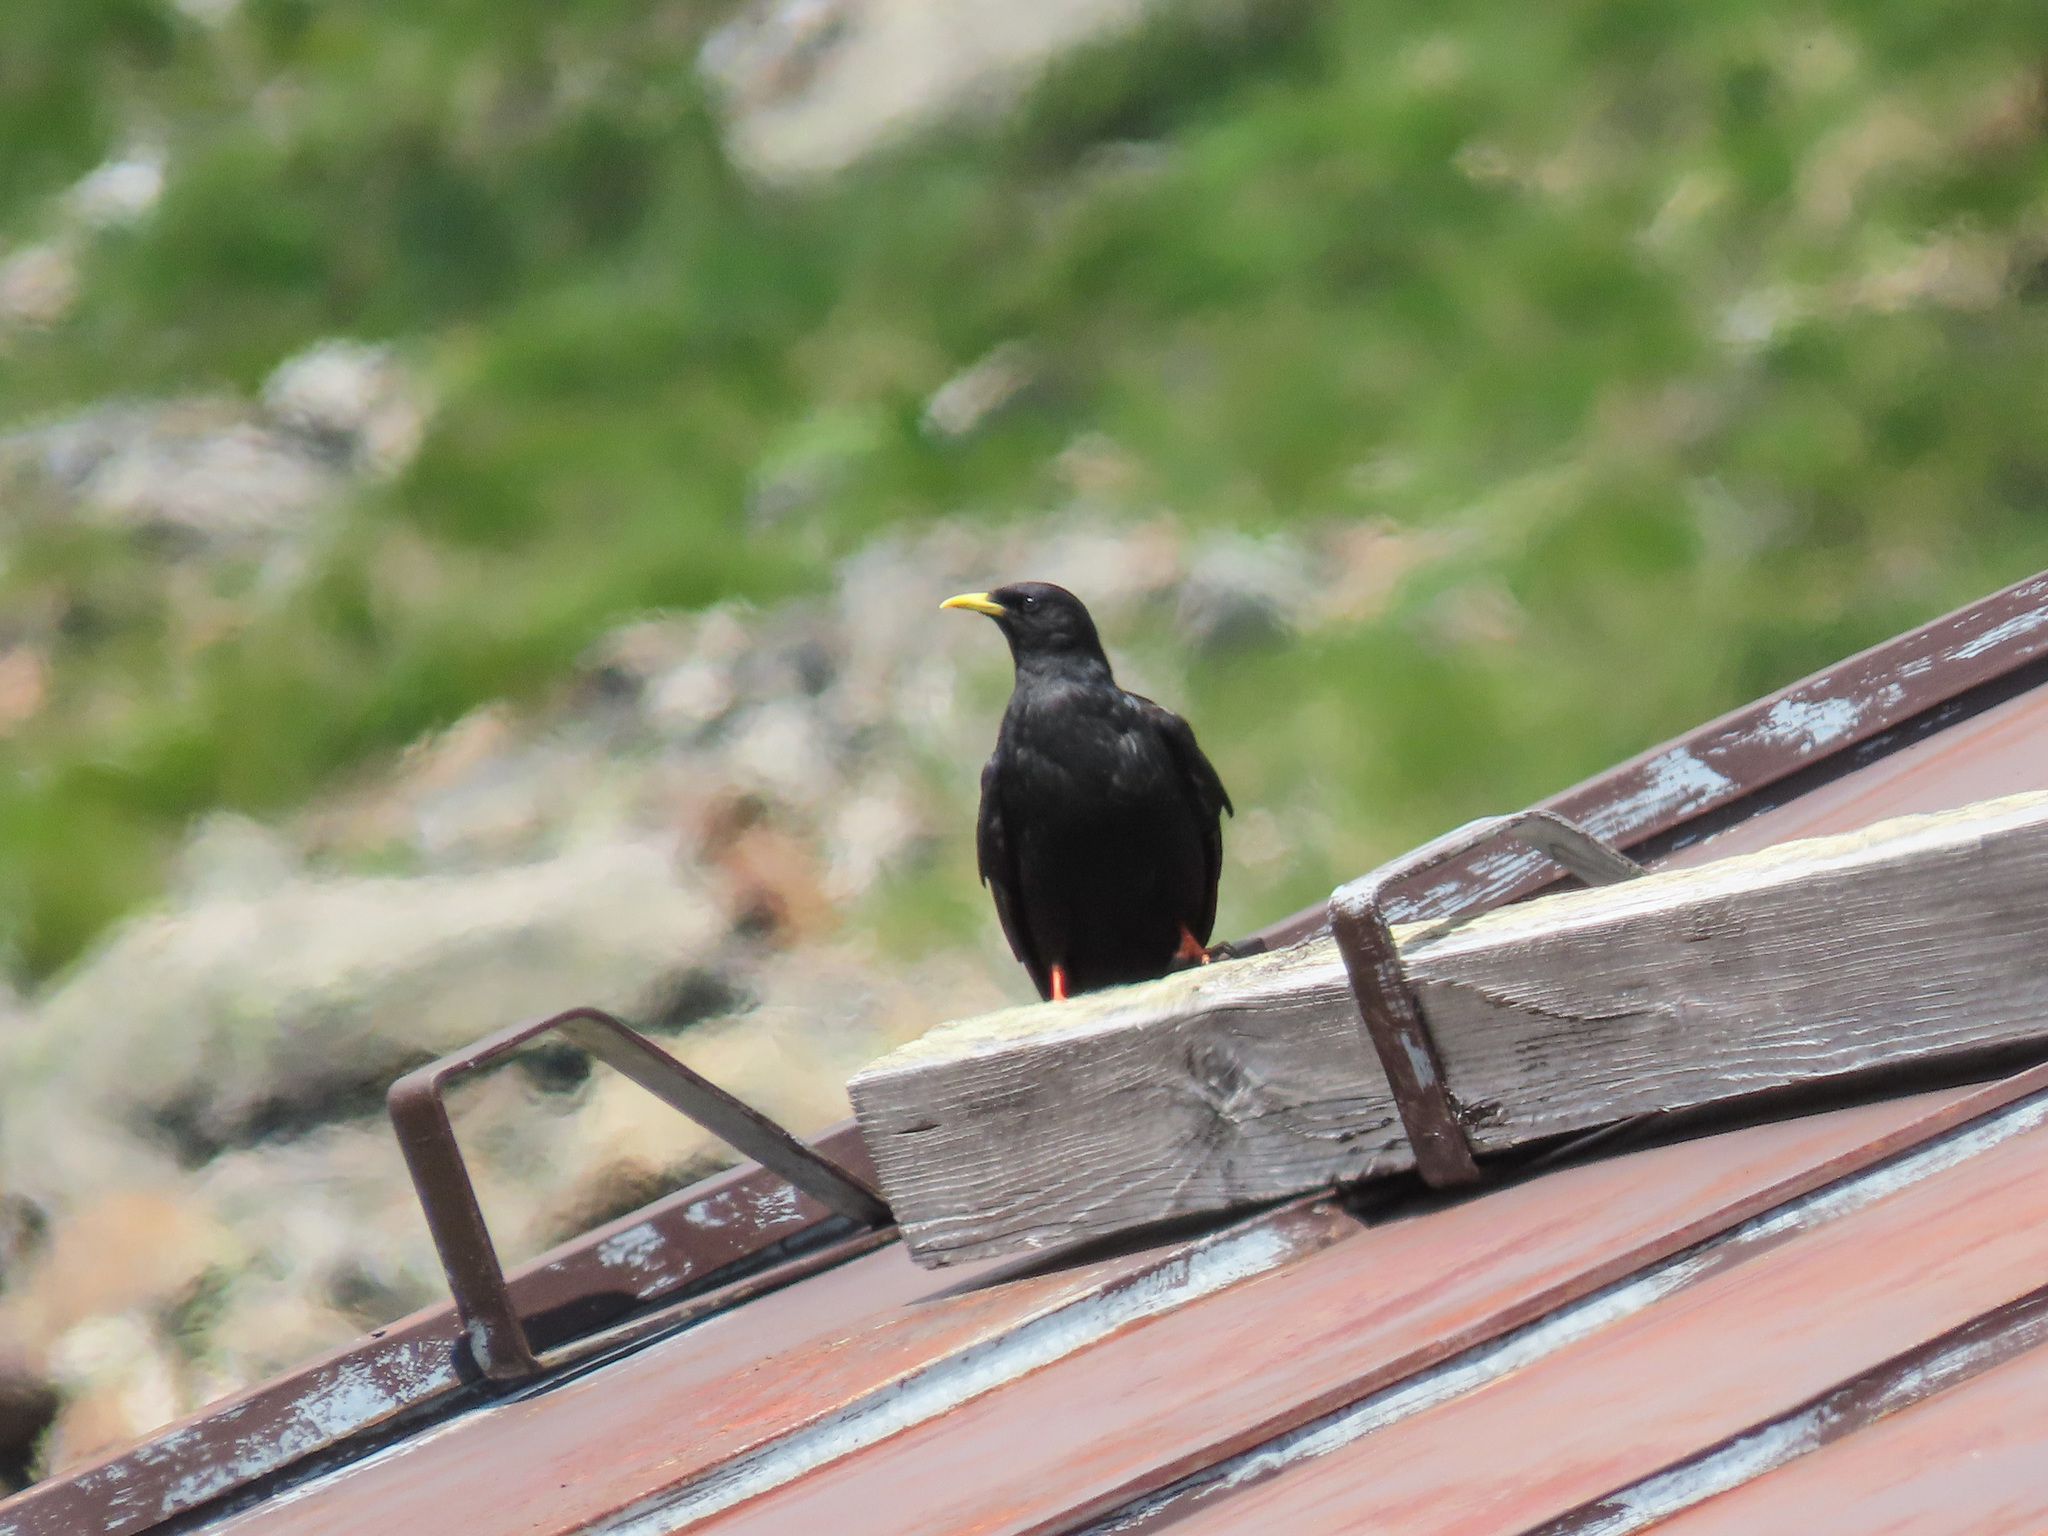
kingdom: Animalia
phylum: Chordata
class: Aves
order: Passeriformes
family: Corvidae
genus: Pyrrhocorax
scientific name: Pyrrhocorax graculus
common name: Alpine chough
